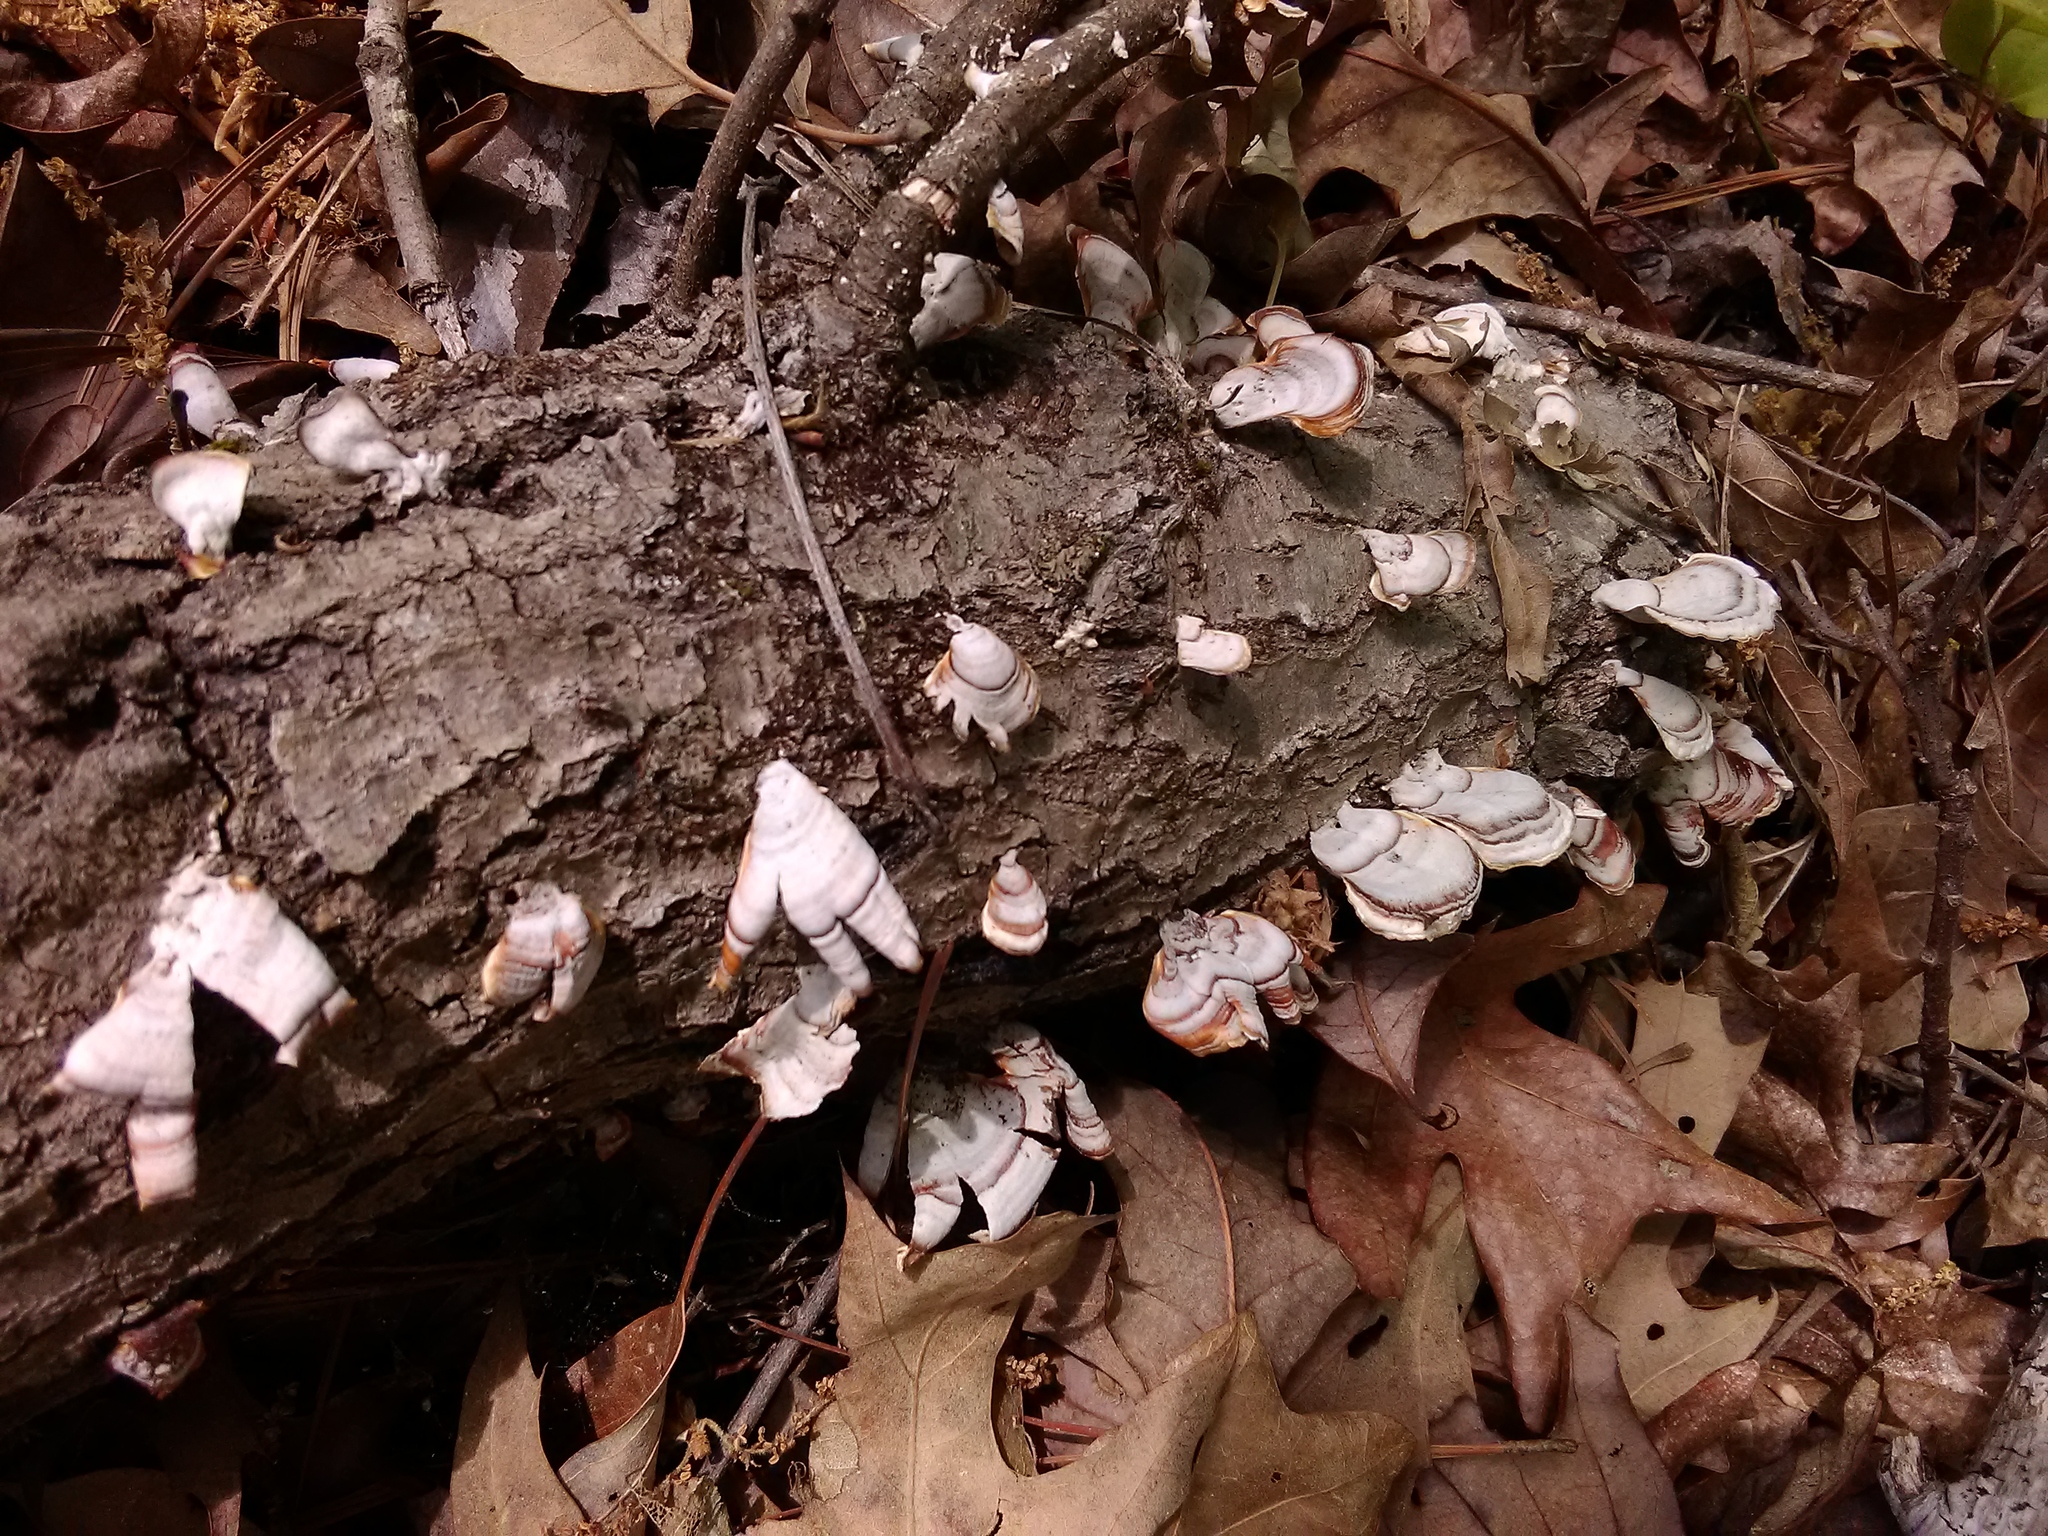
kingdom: Fungi
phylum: Basidiomycota
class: Agaricomycetes
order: Russulales
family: Stereaceae
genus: Stereum
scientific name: Stereum hirsutum
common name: Hairy curtain crust
